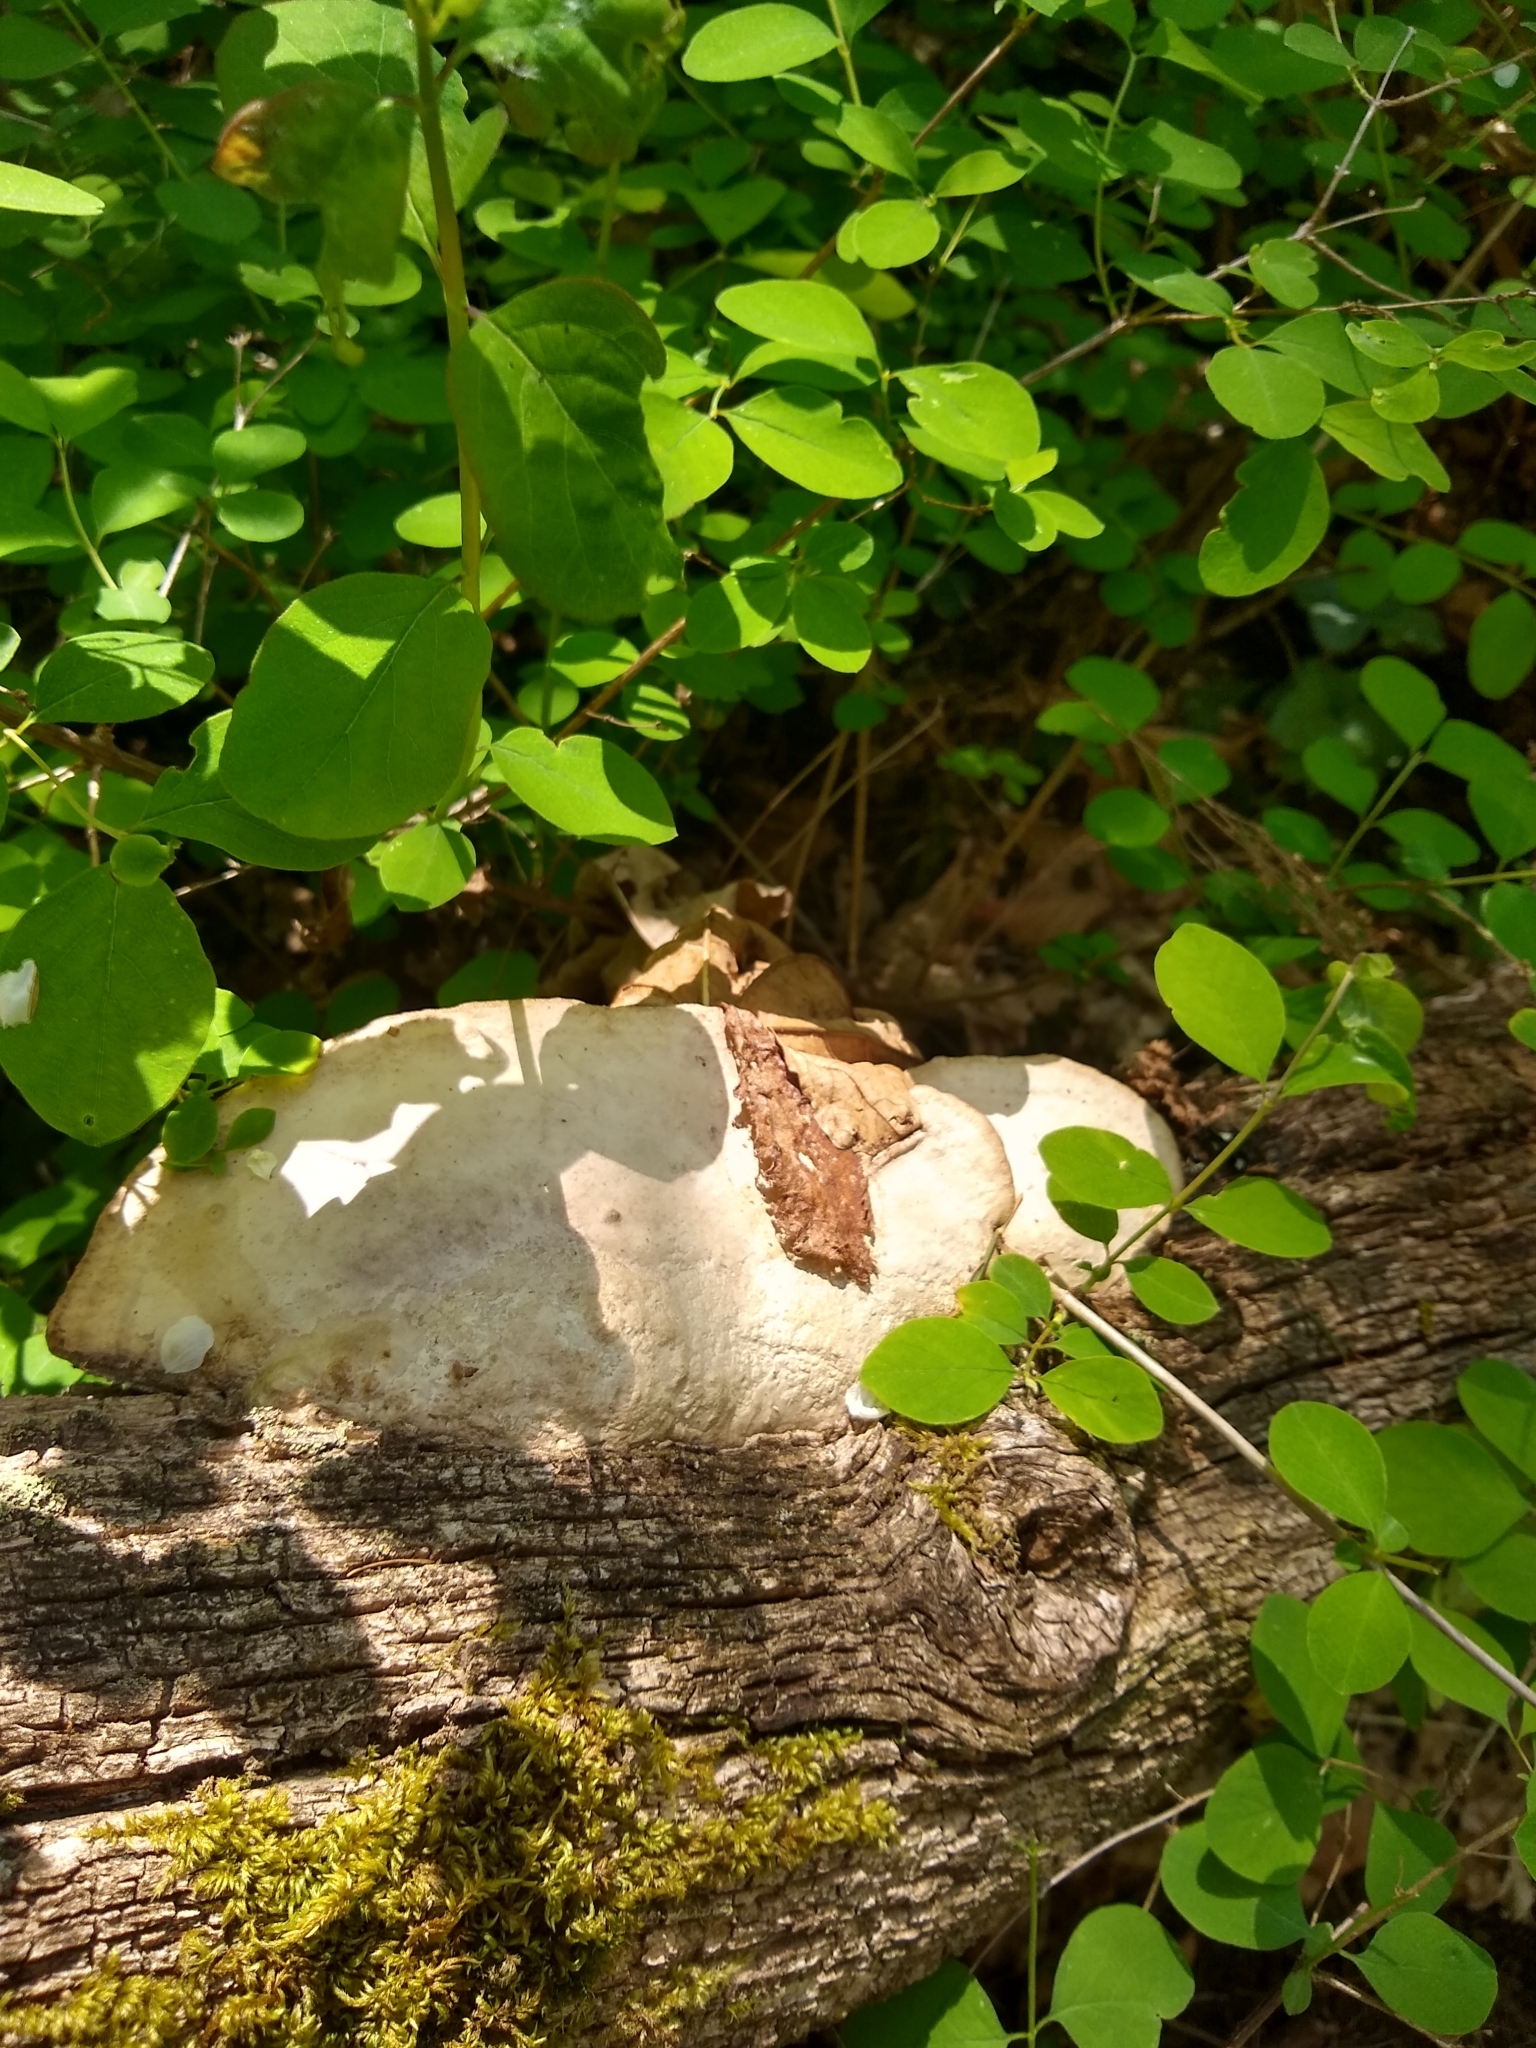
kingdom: Fungi
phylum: Basidiomycota
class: Agaricomycetes
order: Polyporales
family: Fomitopsidaceae
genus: Fomitopsis
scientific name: Fomitopsis
